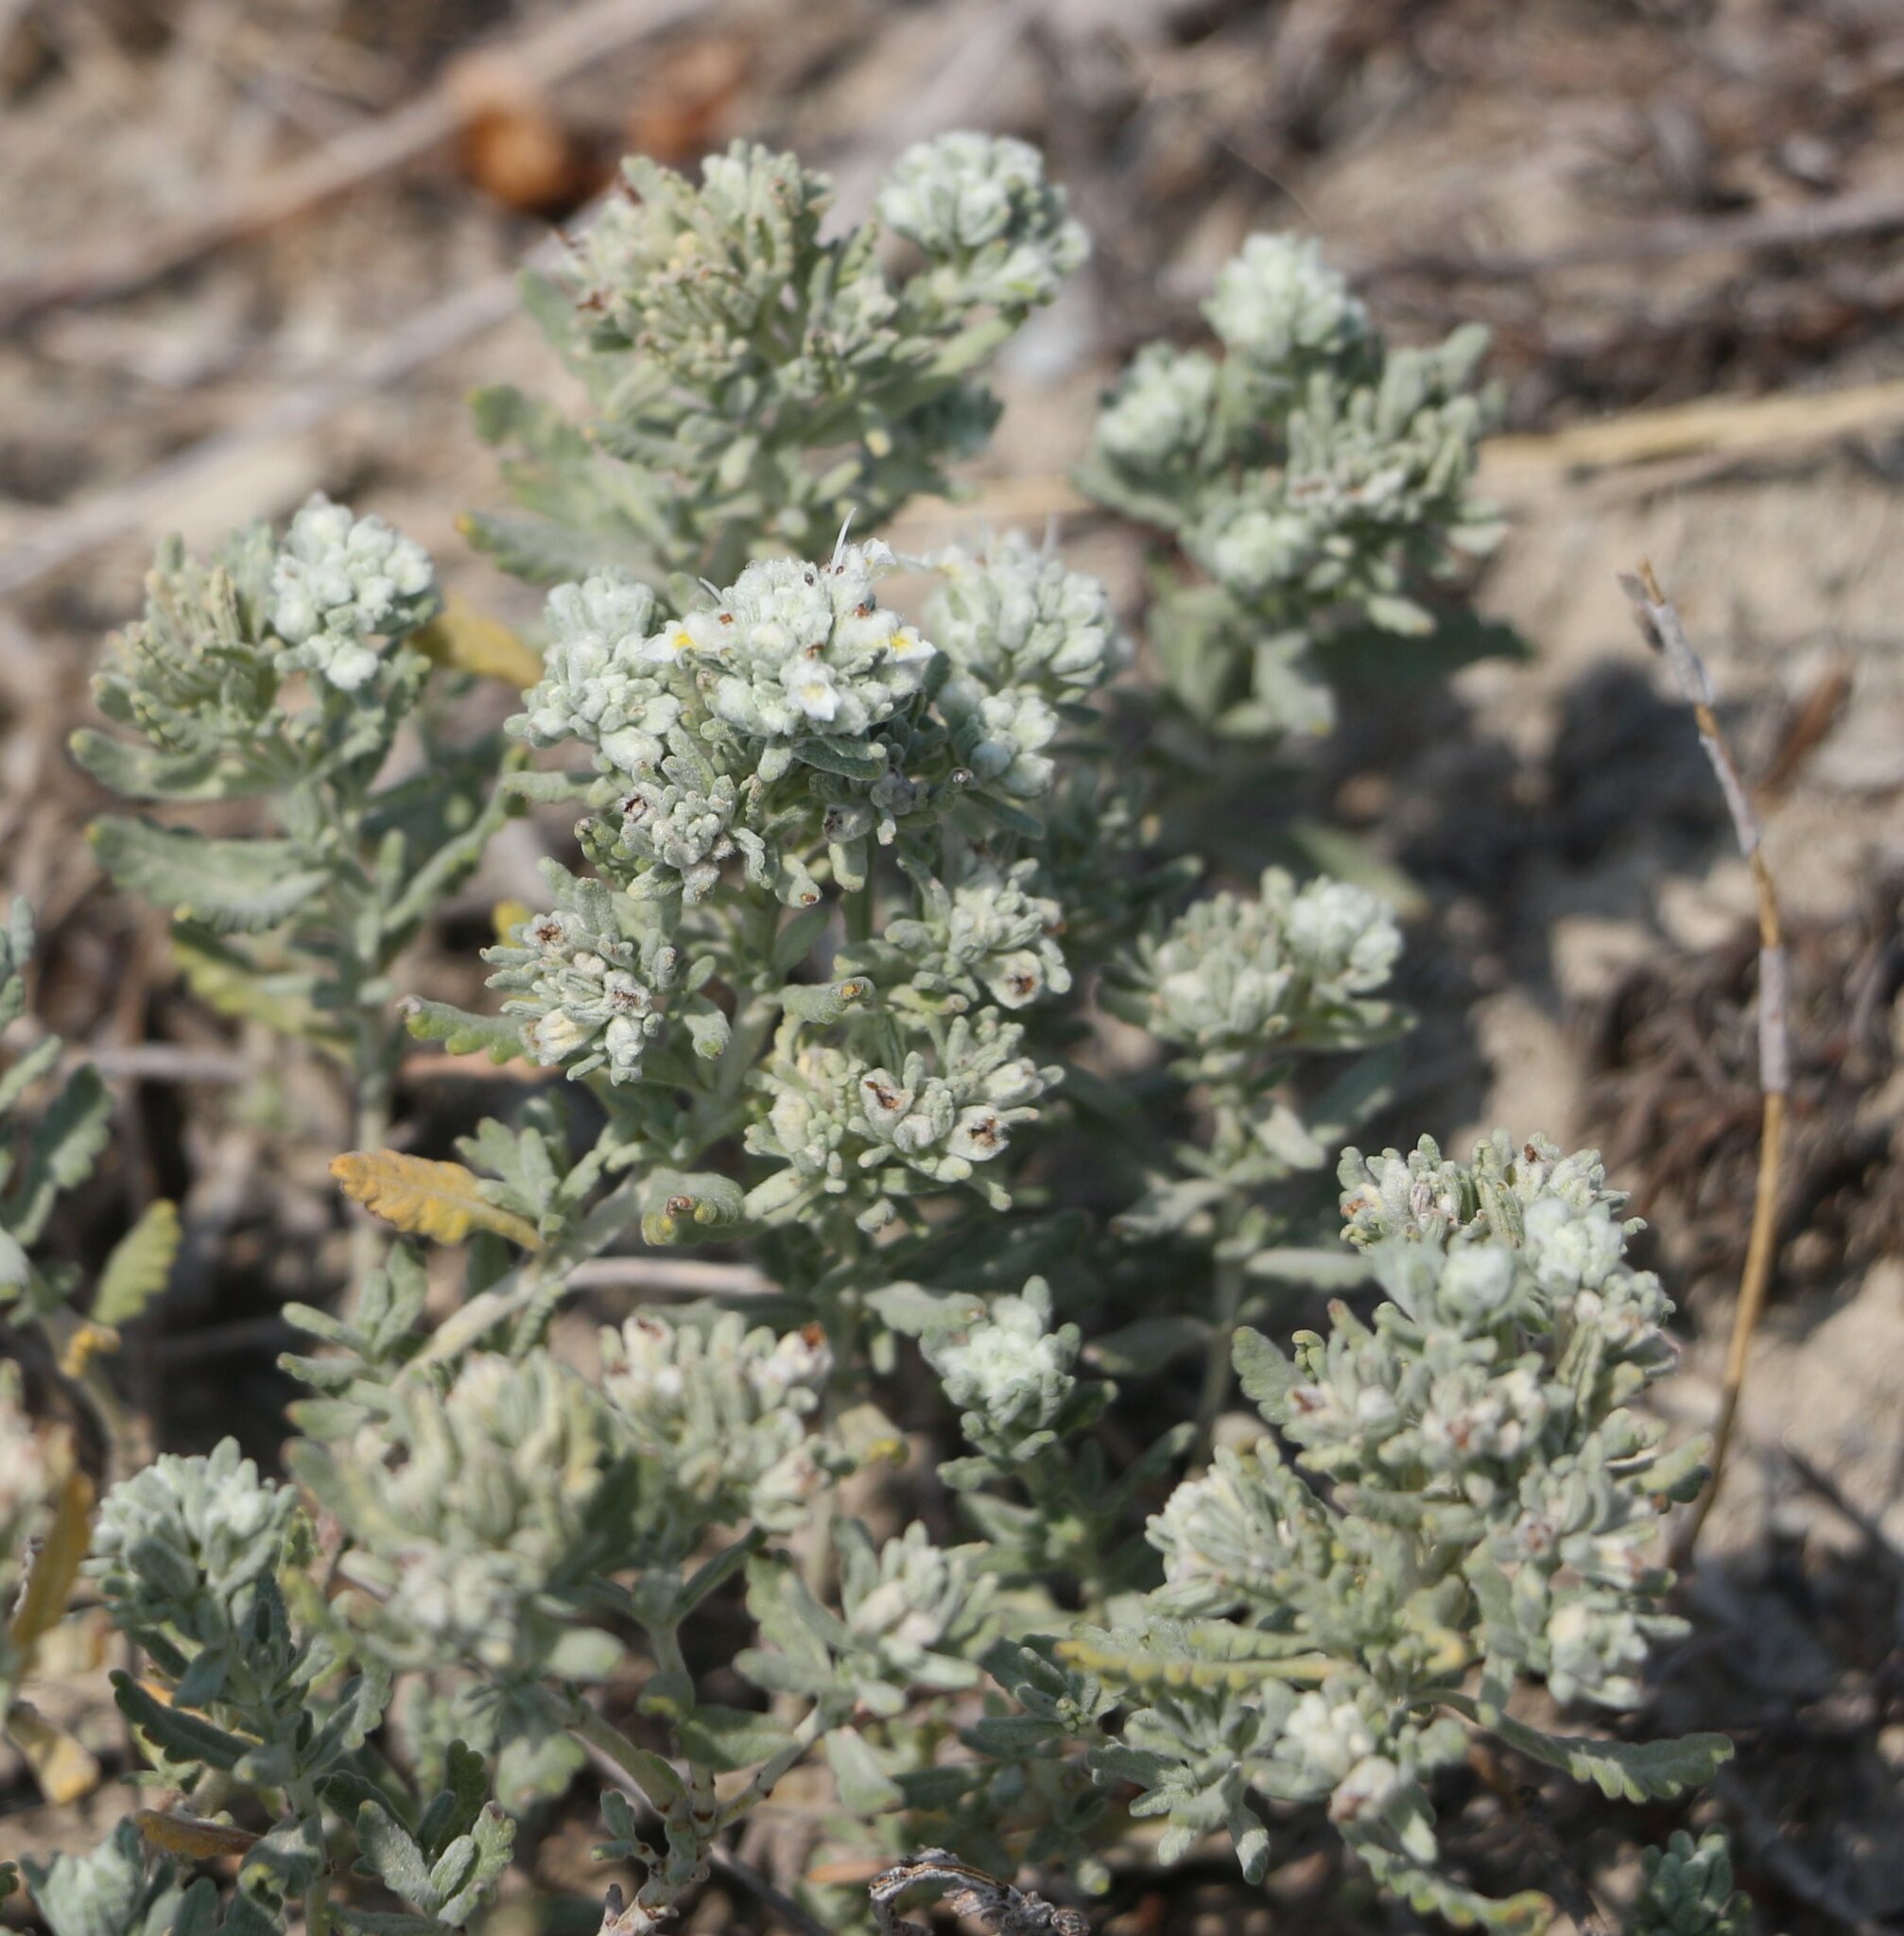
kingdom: Plantae
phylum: Tracheophyta
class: Magnoliopsida
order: Lamiales
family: Lamiaceae
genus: Teucrium
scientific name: Teucrium polium
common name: Poley
